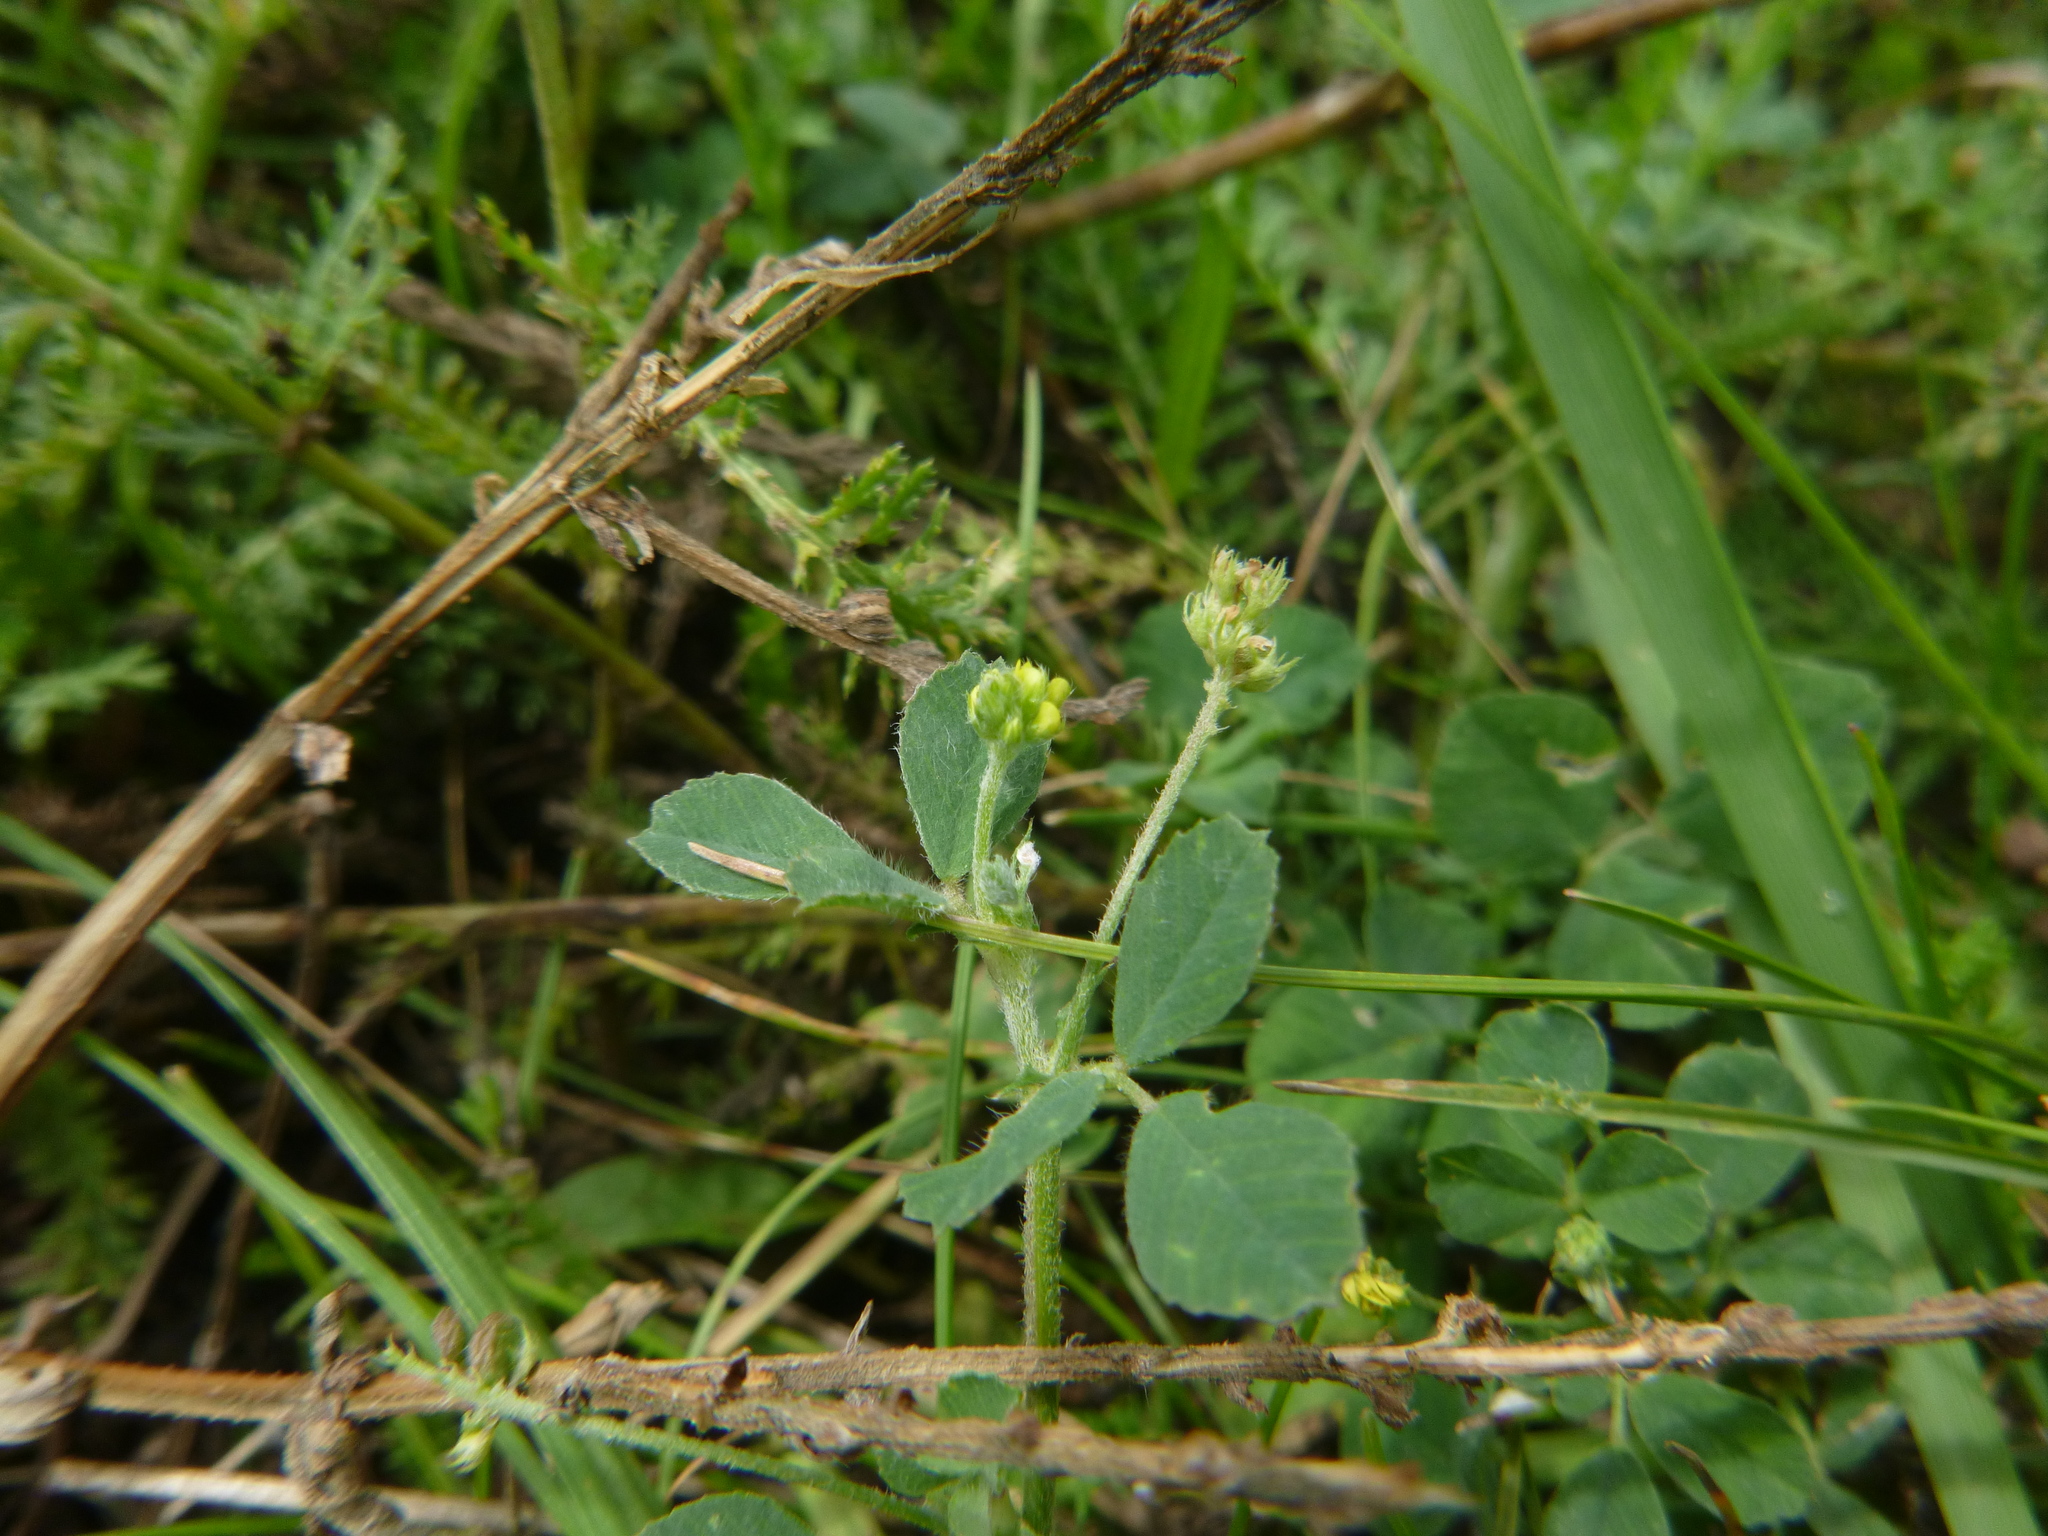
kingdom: Plantae
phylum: Tracheophyta
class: Magnoliopsida
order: Fabales
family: Fabaceae
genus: Medicago
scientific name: Medicago lupulina
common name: Black medick
